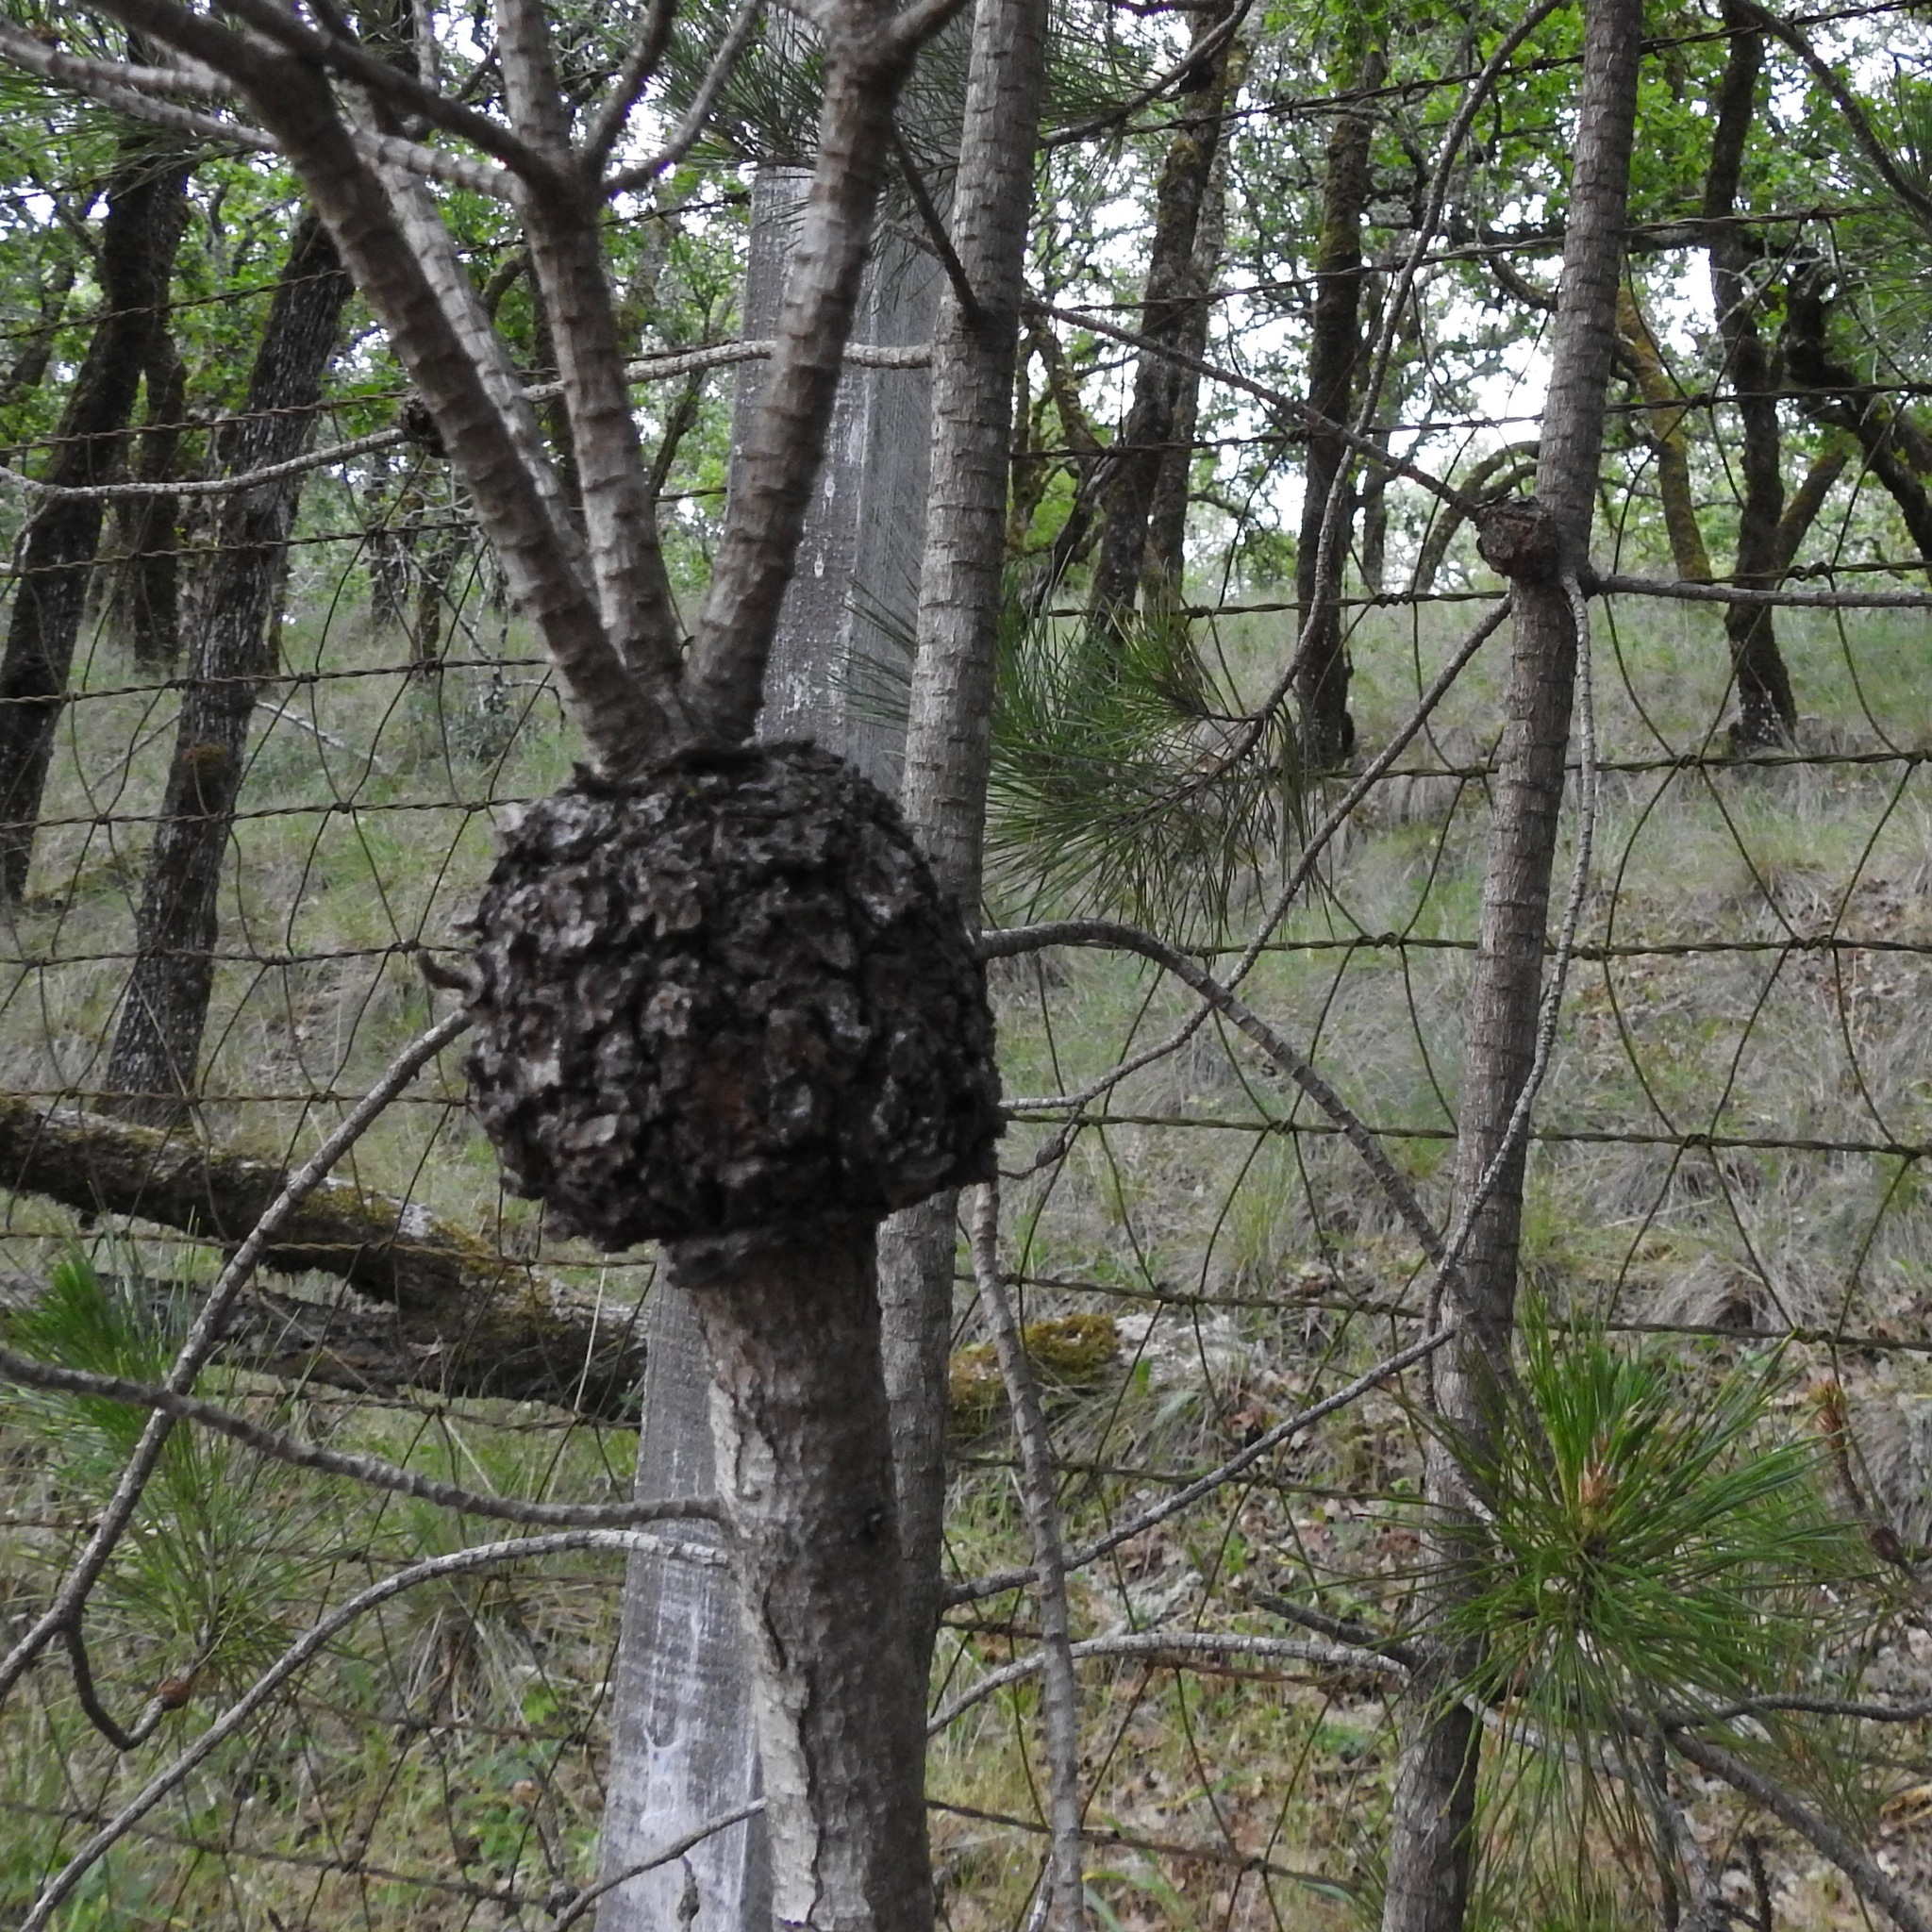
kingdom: Fungi
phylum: Basidiomycota
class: Pucciniomycetes
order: Pucciniales
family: Cronartiaceae
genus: Cronartium
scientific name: Cronartium harknessii
